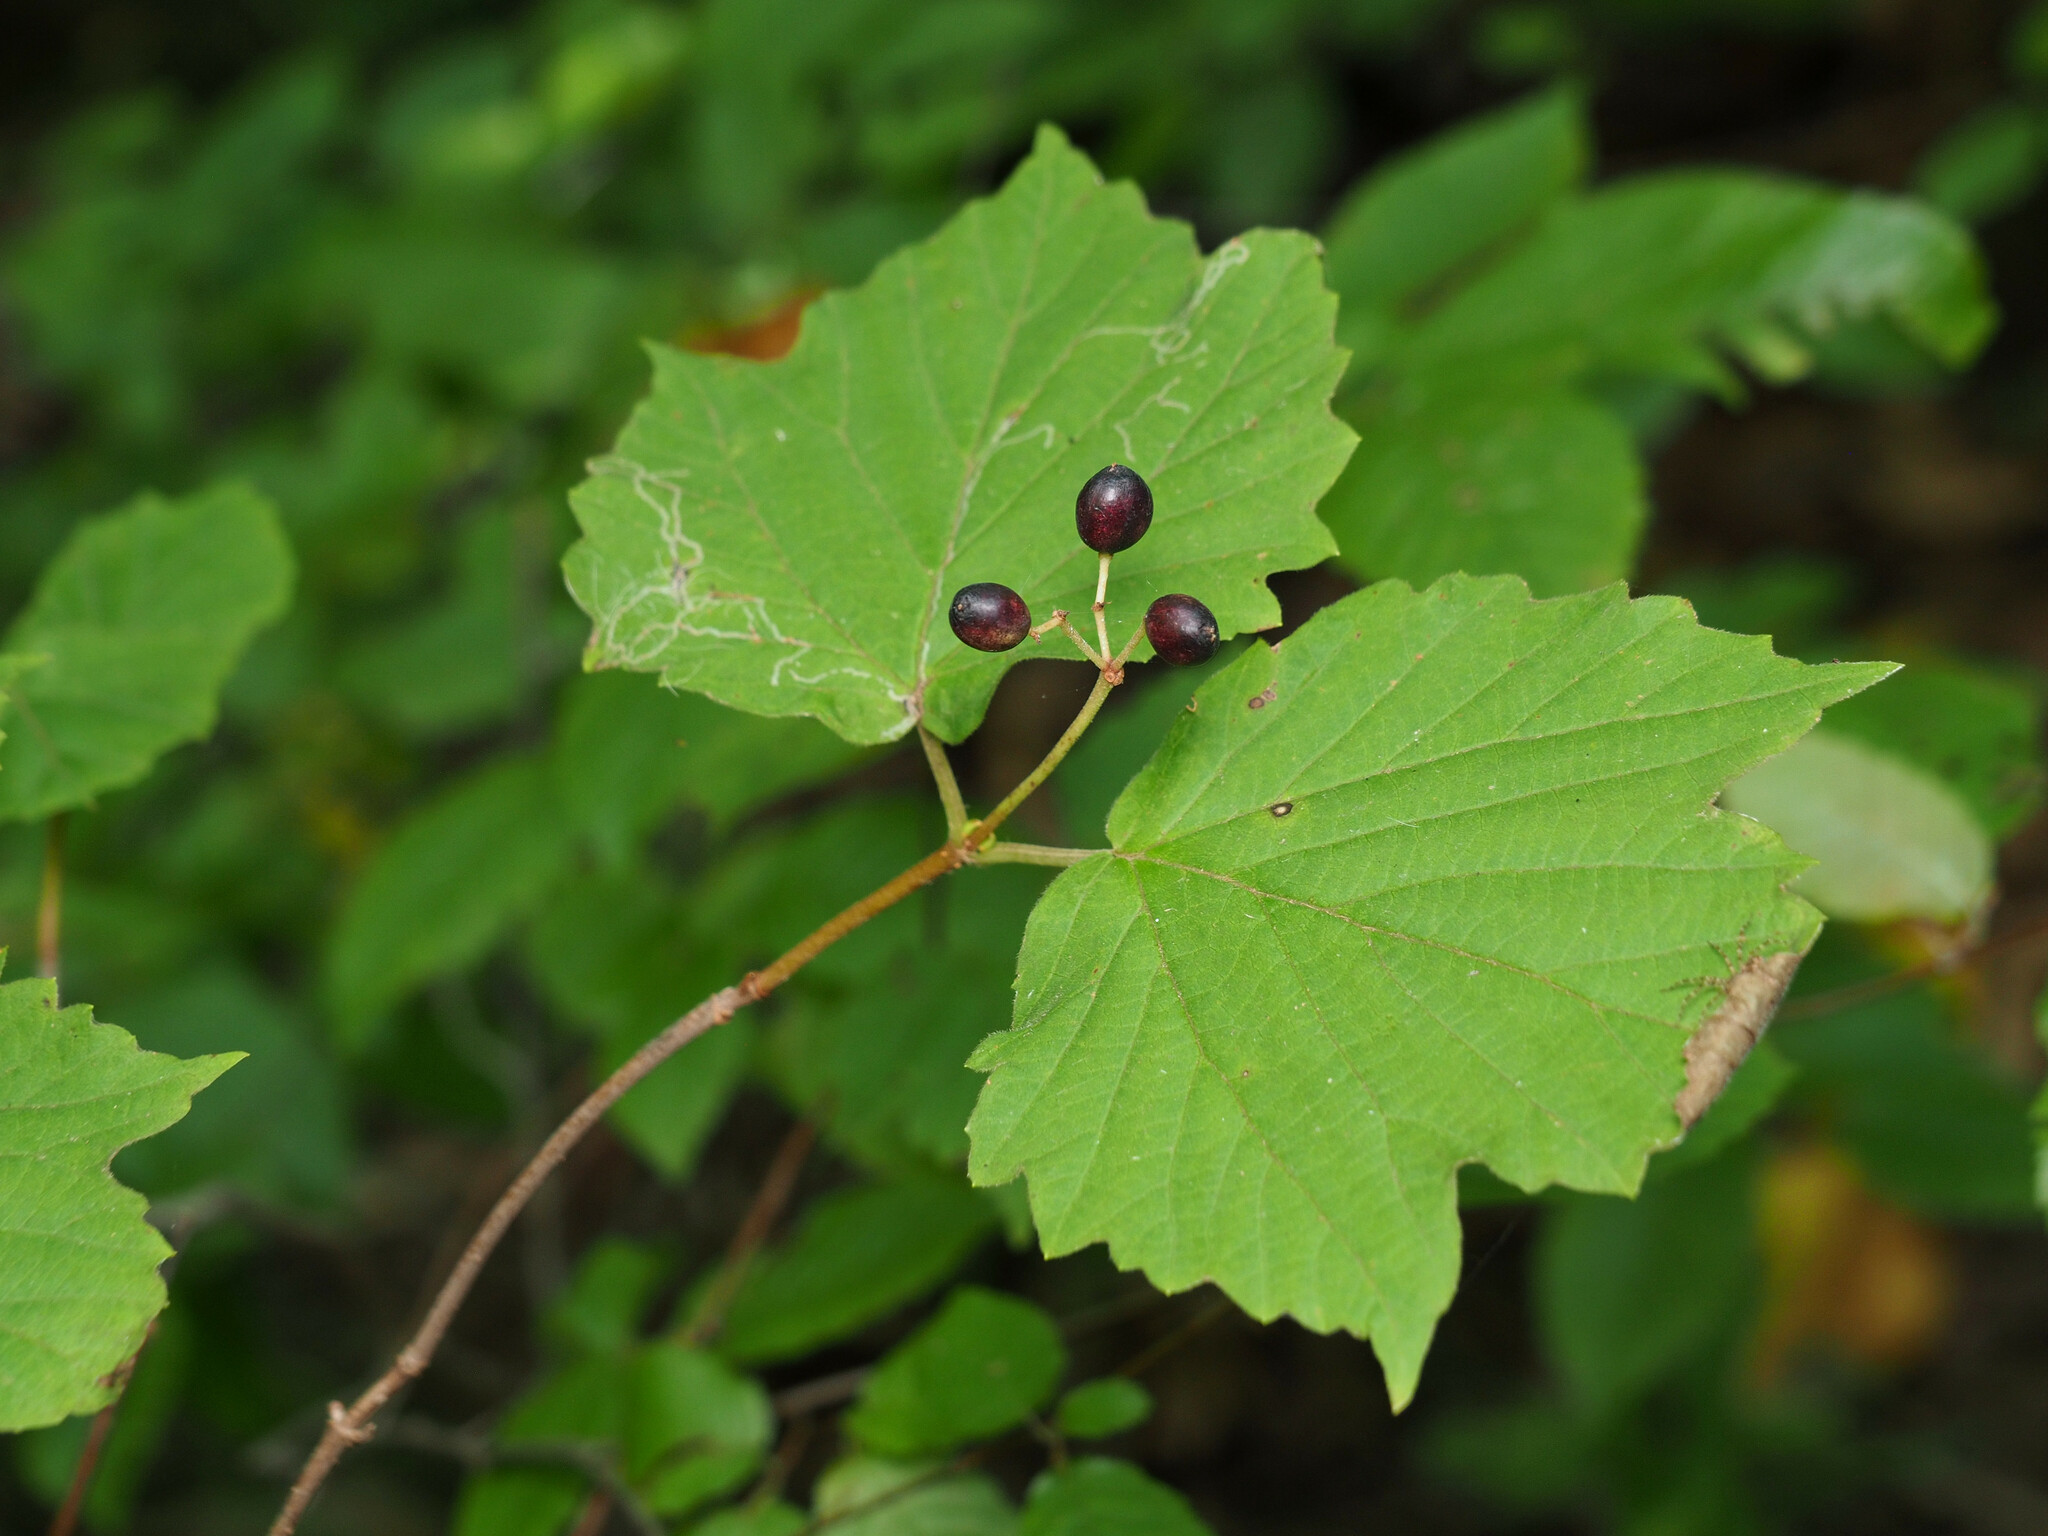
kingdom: Plantae
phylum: Tracheophyta
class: Magnoliopsida
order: Dipsacales
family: Viburnaceae
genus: Viburnum
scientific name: Viburnum acerifolium
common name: Dockmackie
